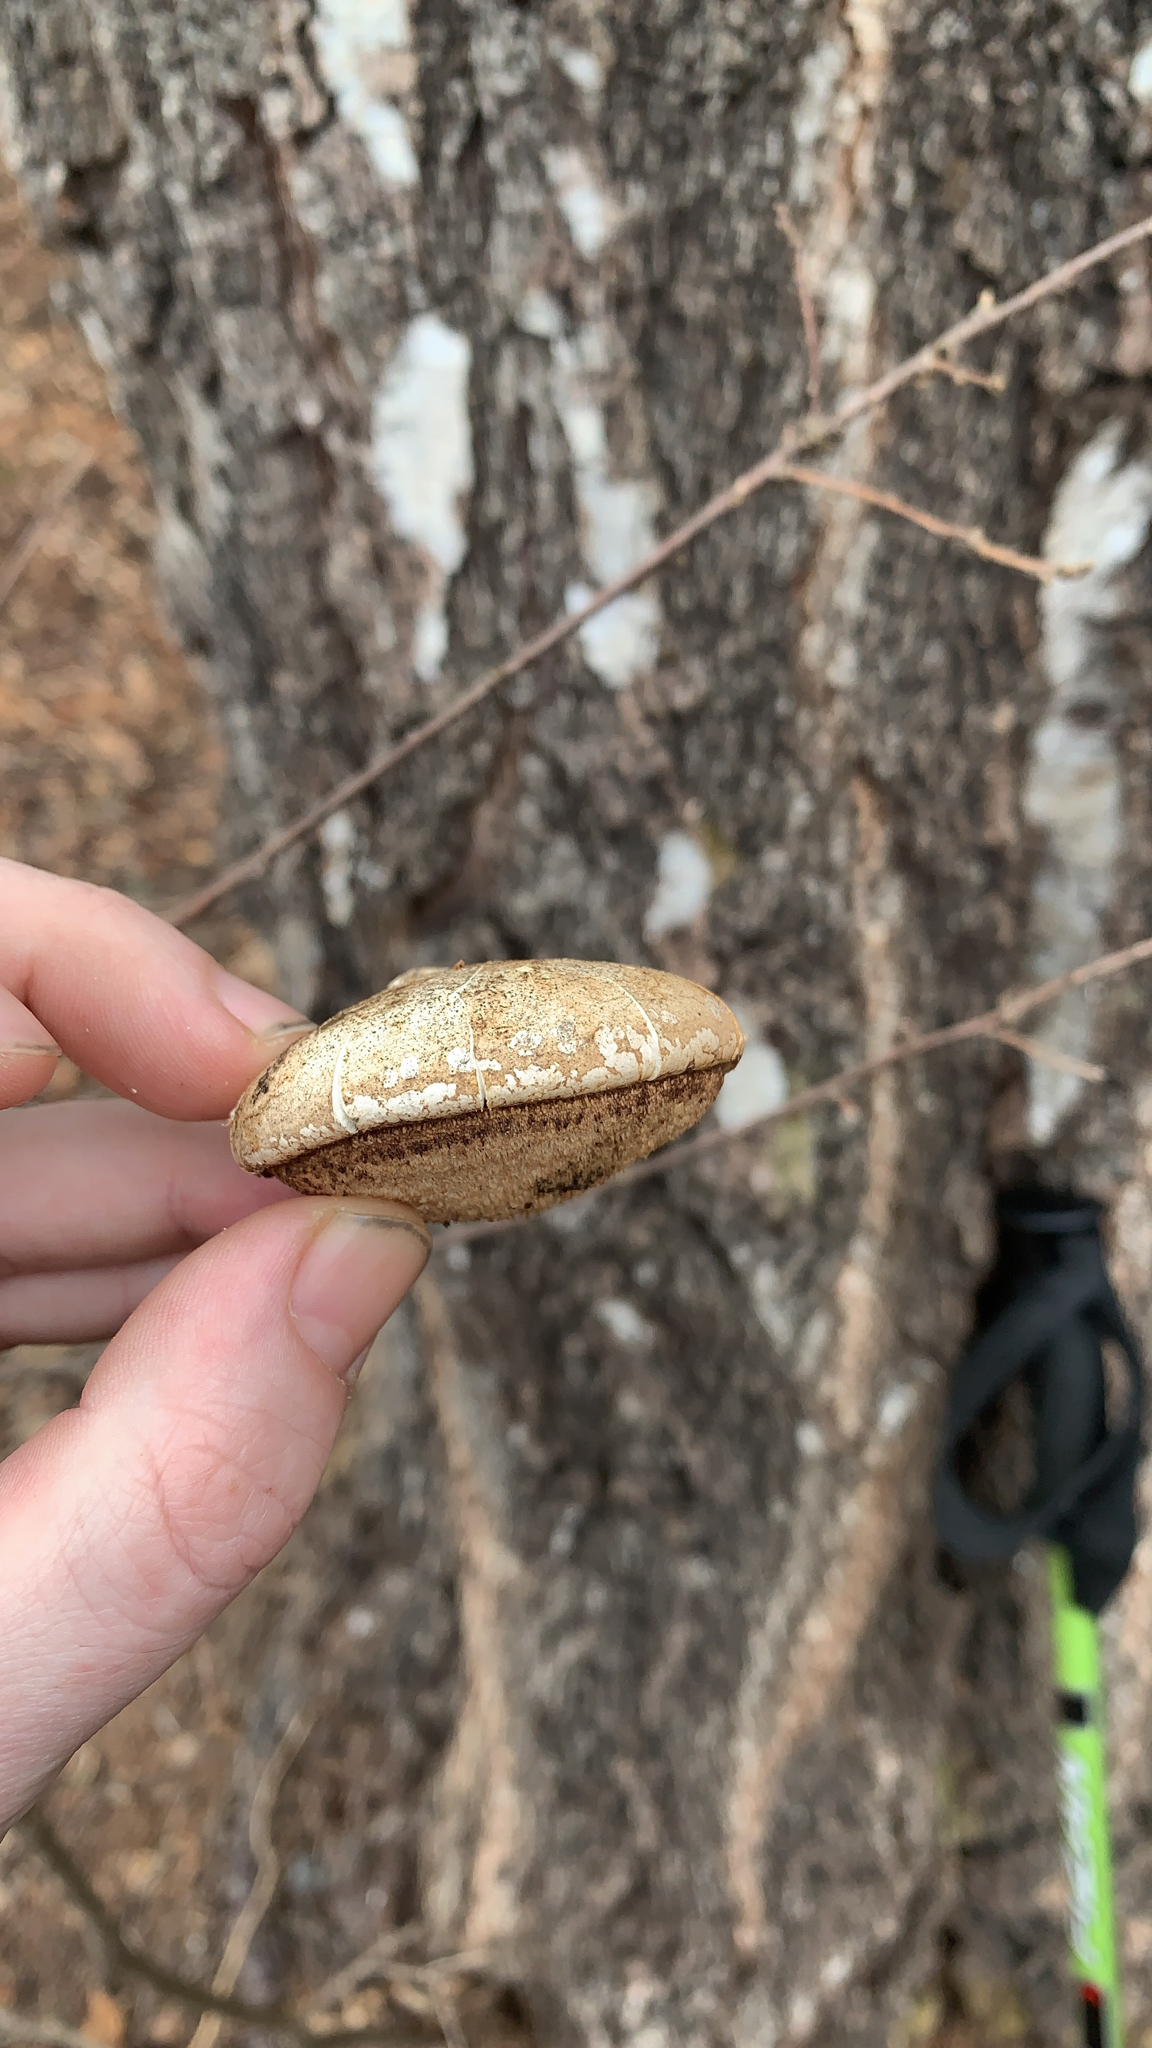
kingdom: Fungi
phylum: Basidiomycota
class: Agaricomycetes
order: Polyporales
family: Fomitopsidaceae
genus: Fomitopsis
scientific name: Fomitopsis betulina
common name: Birch polypore
